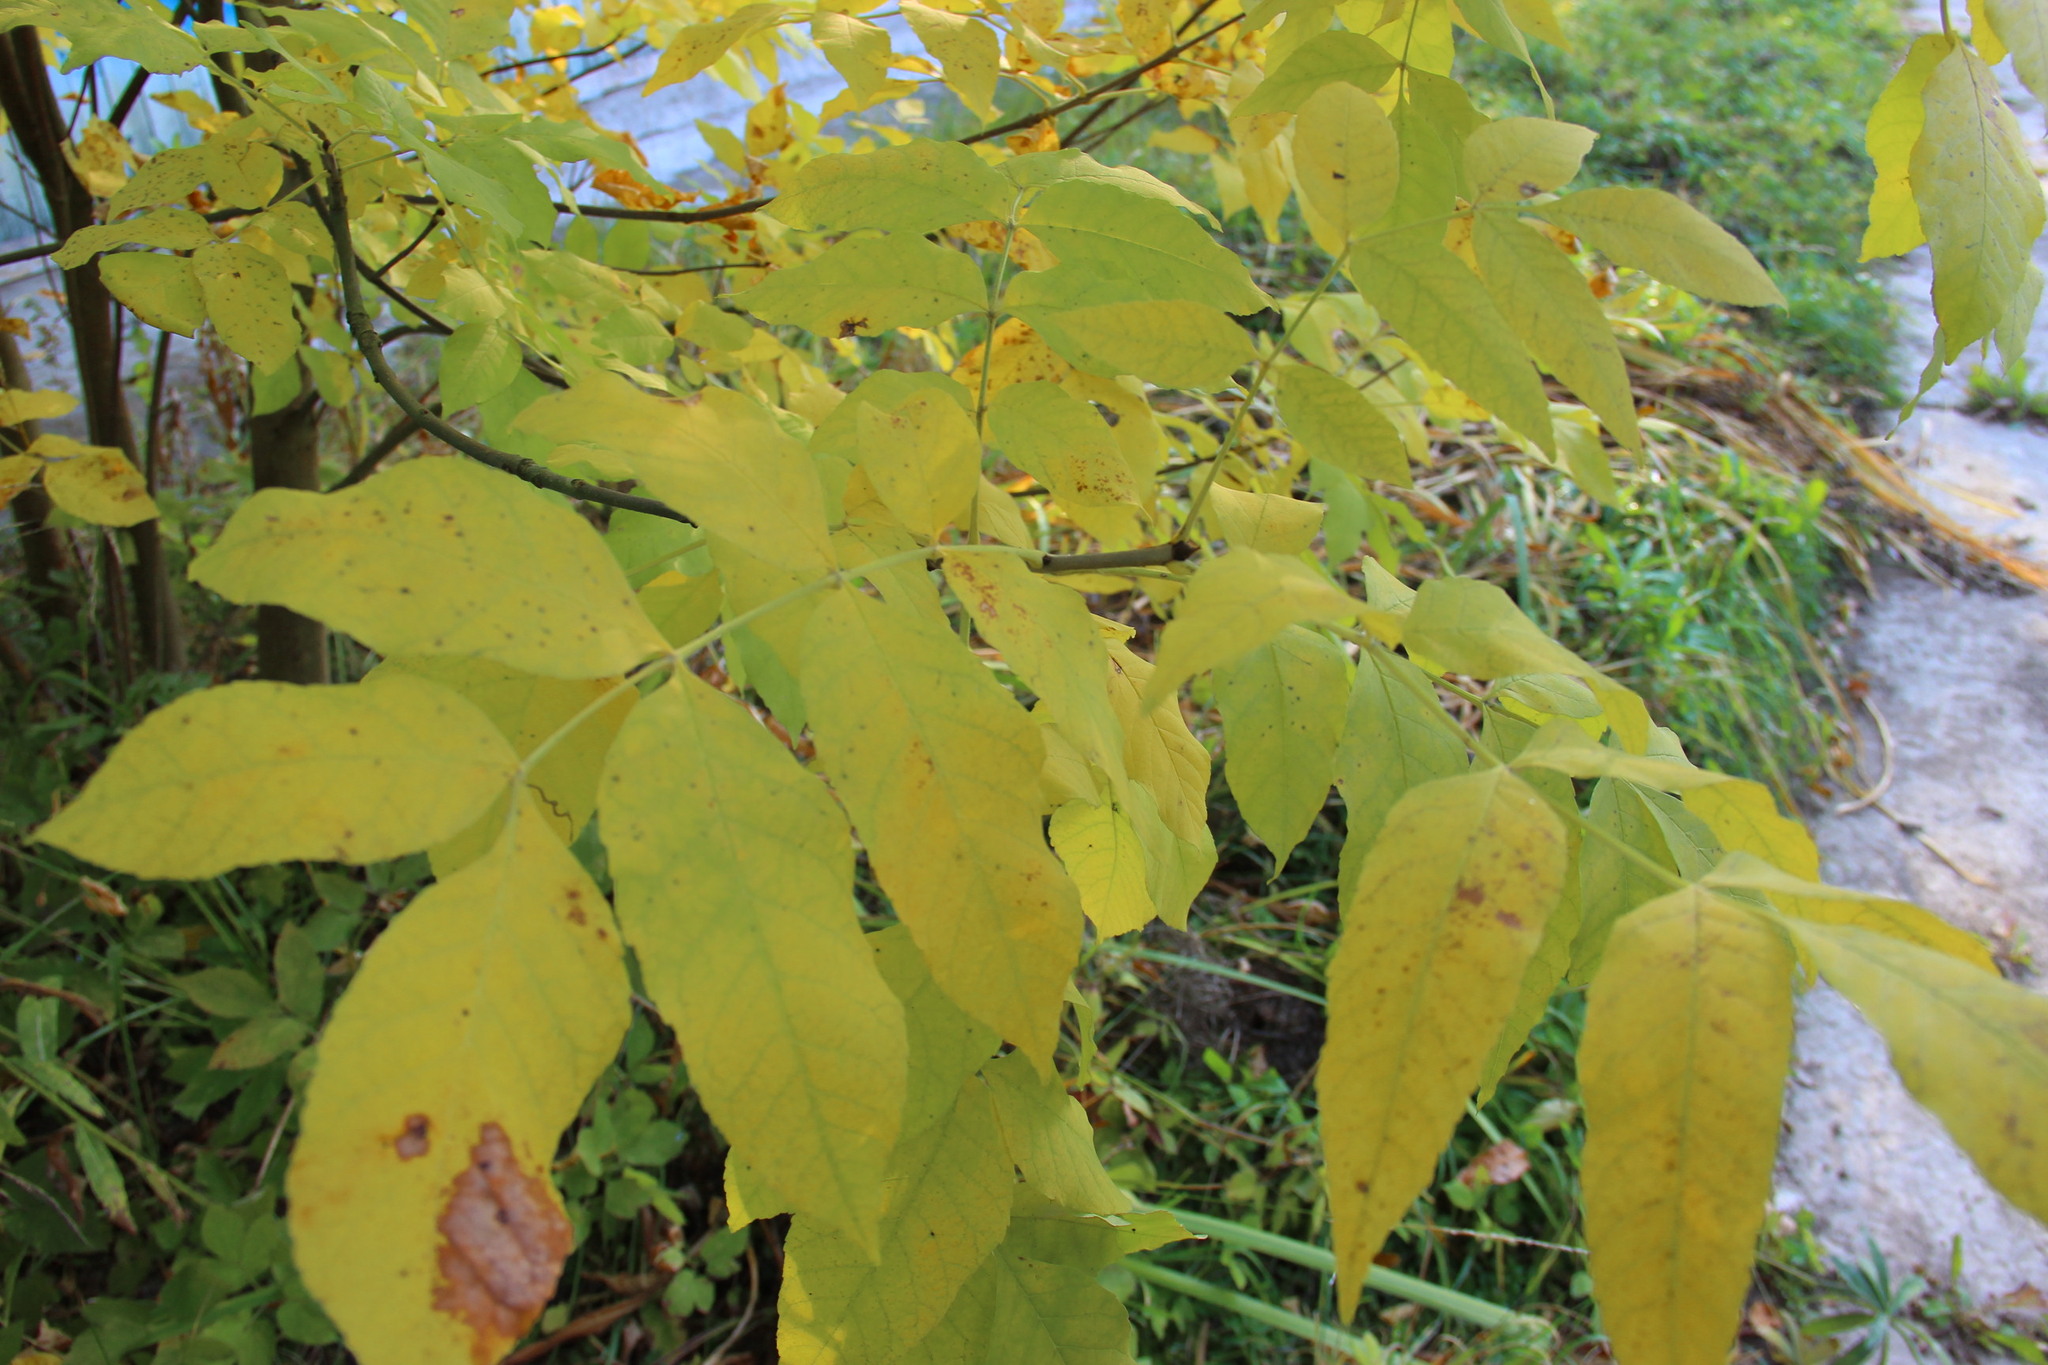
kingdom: Plantae
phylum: Tracheophyta
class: Magnoliopsida
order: Lamiales
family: Oleaceae
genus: Fraxinus
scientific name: Fraxinus pennsylvanica
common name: Green ash
